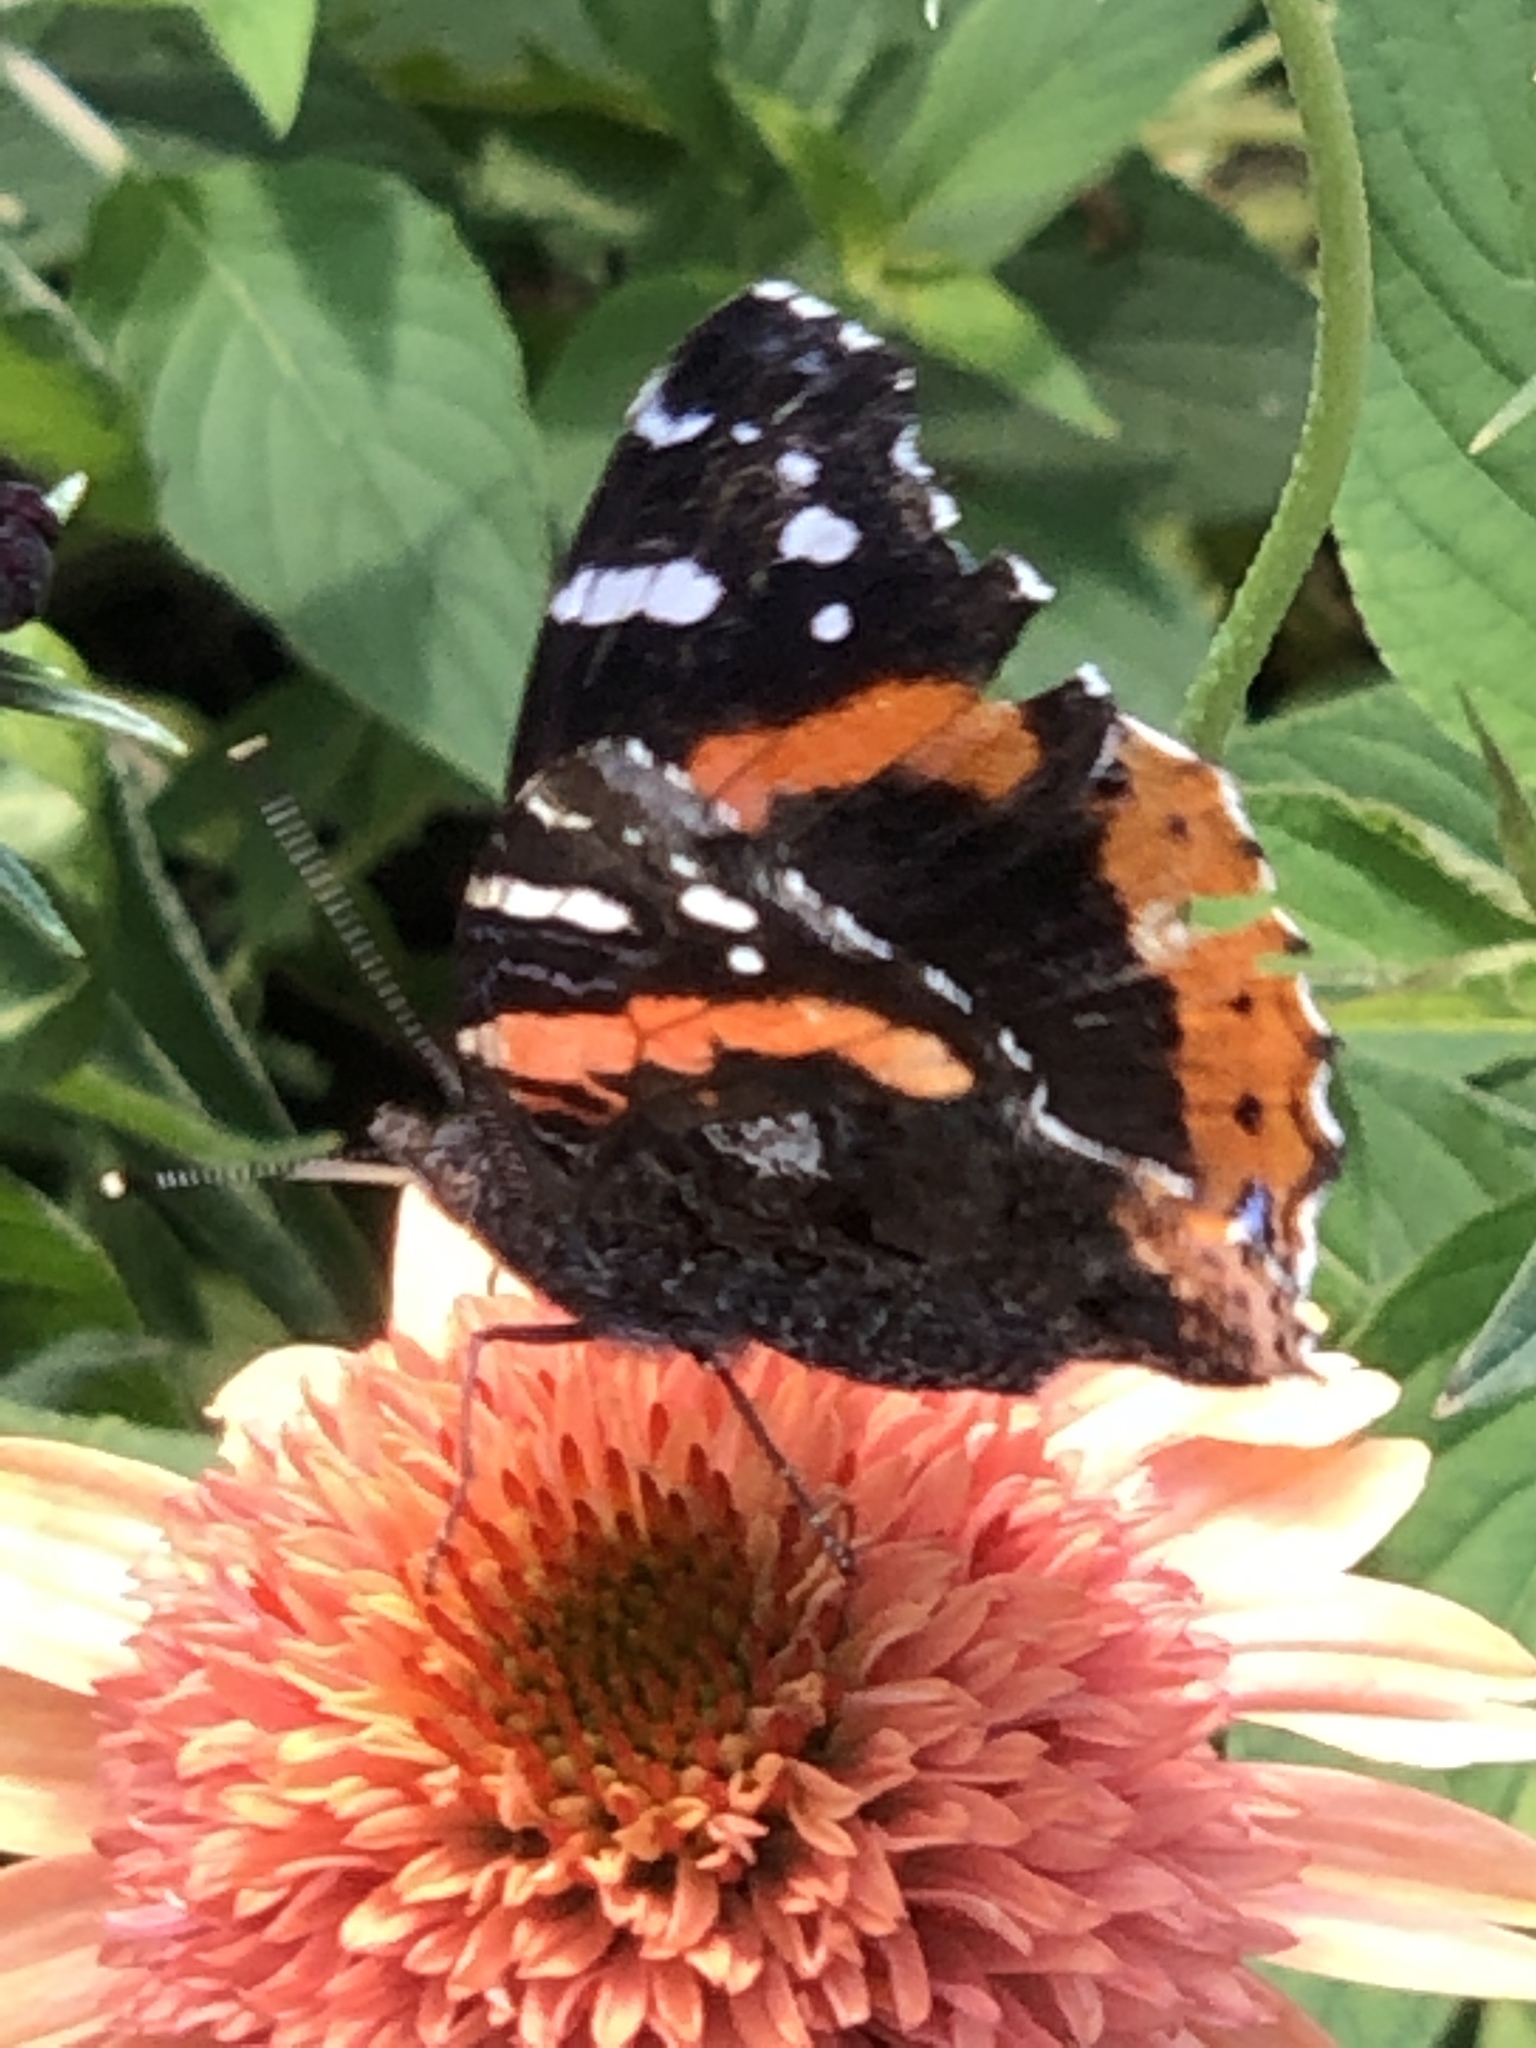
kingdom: Animalia
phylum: Arthropoda
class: Insecta
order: Lepidoptera
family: Nymphalidae
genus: Vanessa
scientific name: Vanessa atalanta
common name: Red admiral
